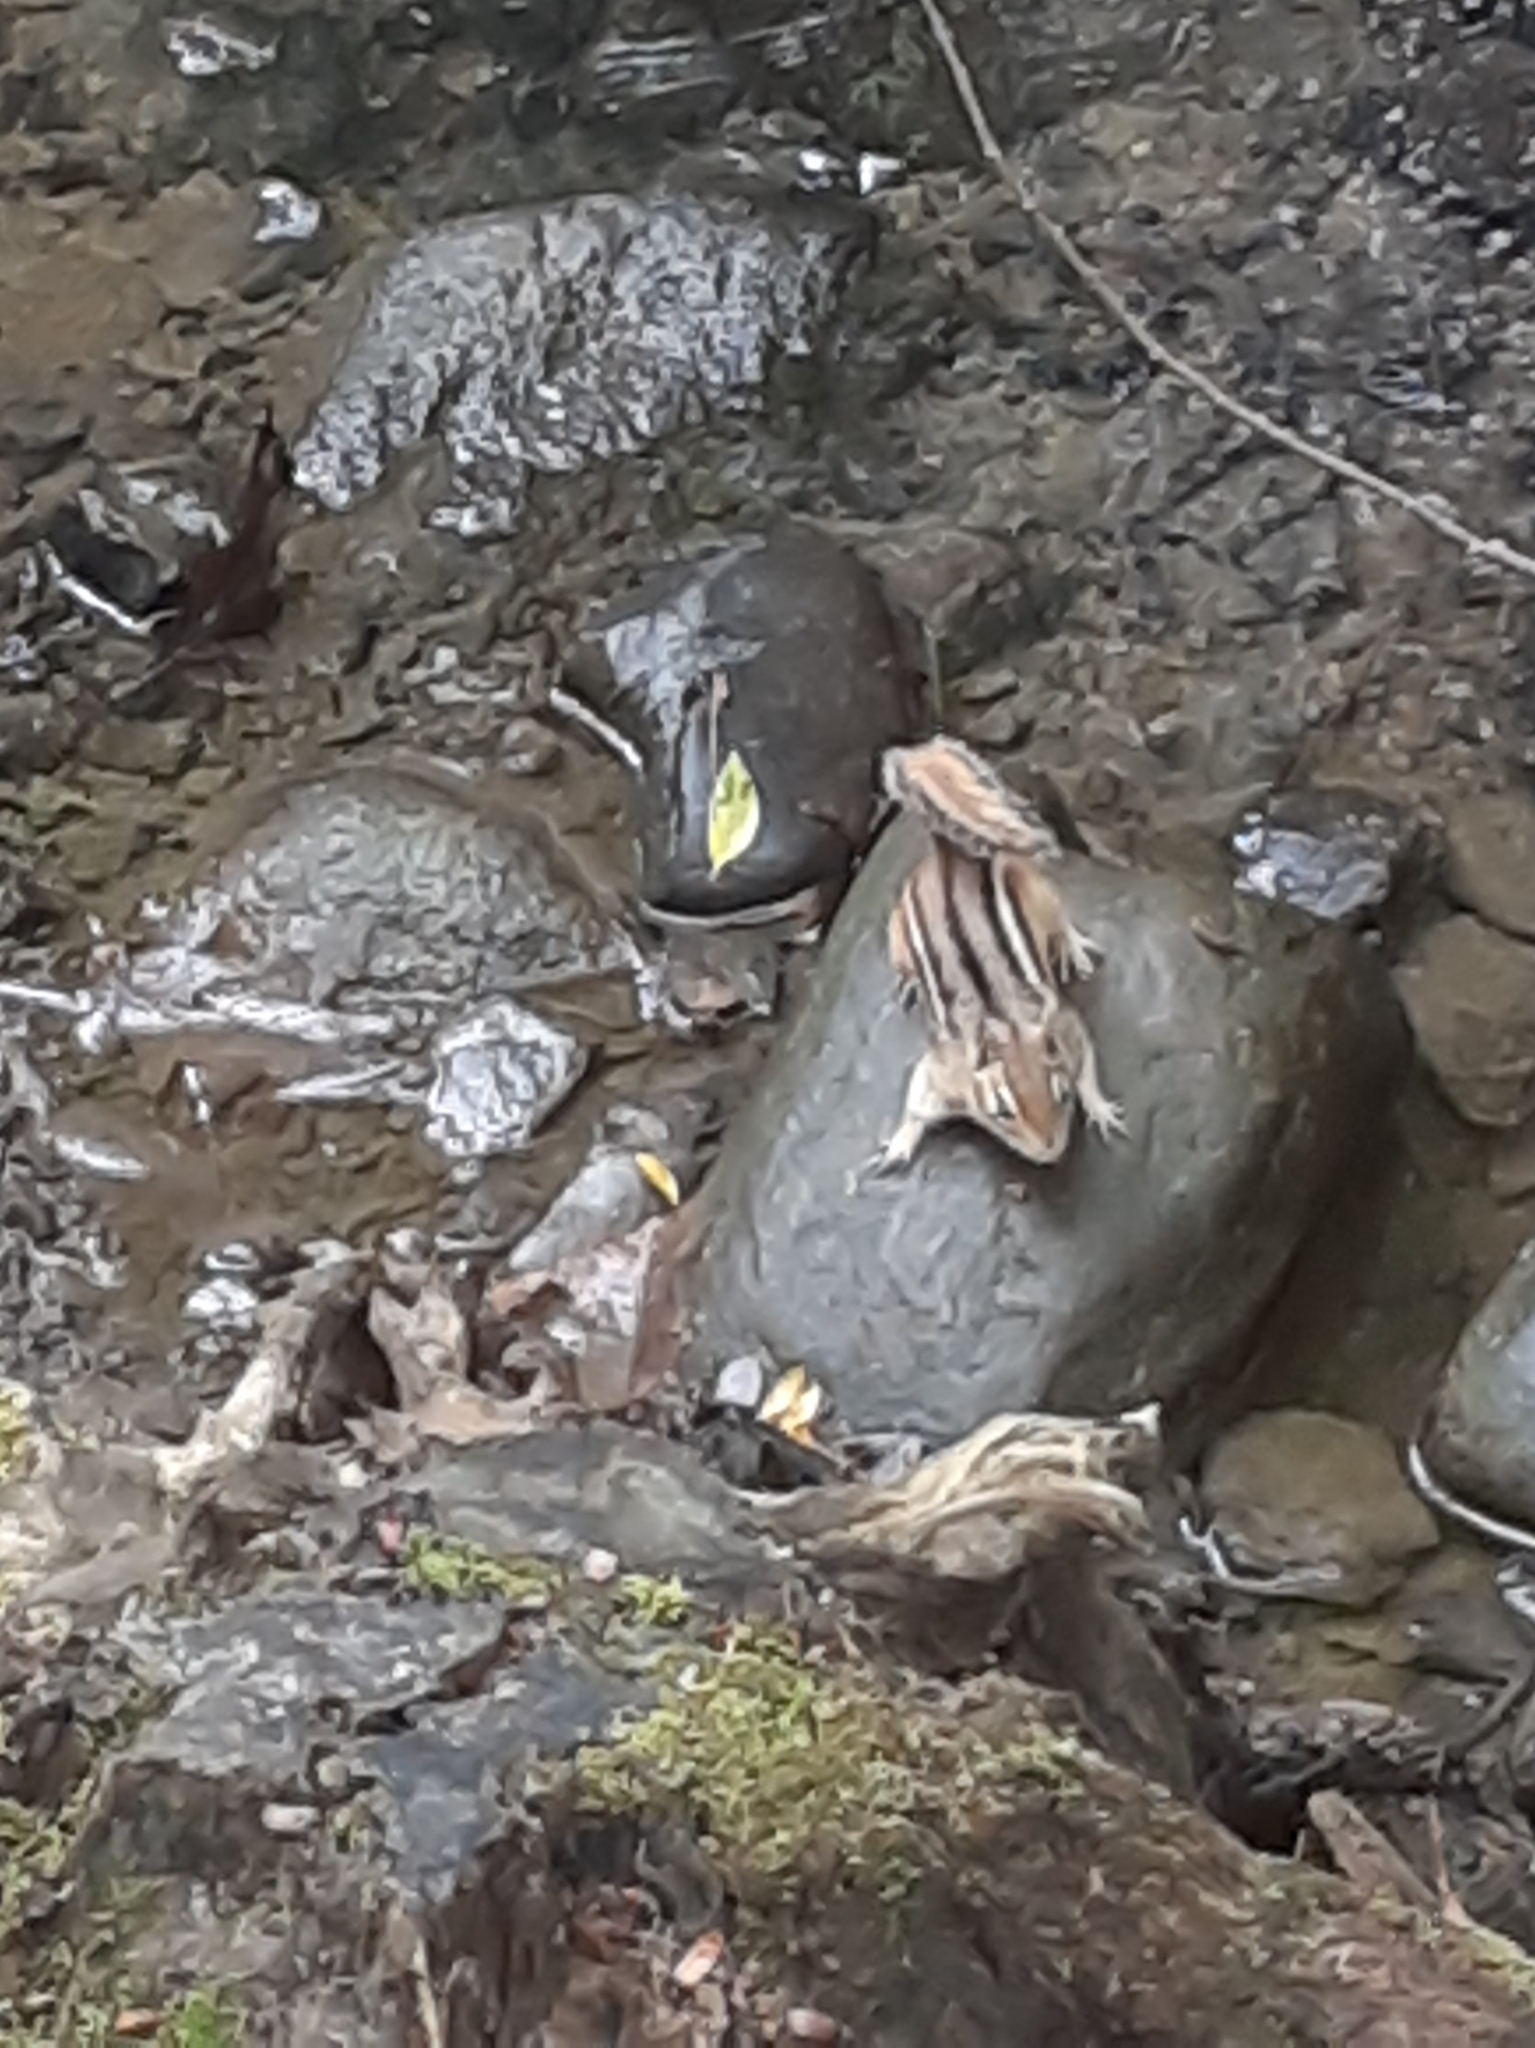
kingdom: Animalia
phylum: Chordata
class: Mammalia
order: Rodentia
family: Sciuridae
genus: Tamias
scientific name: Tamias striatus
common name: Eastern chipmunk
